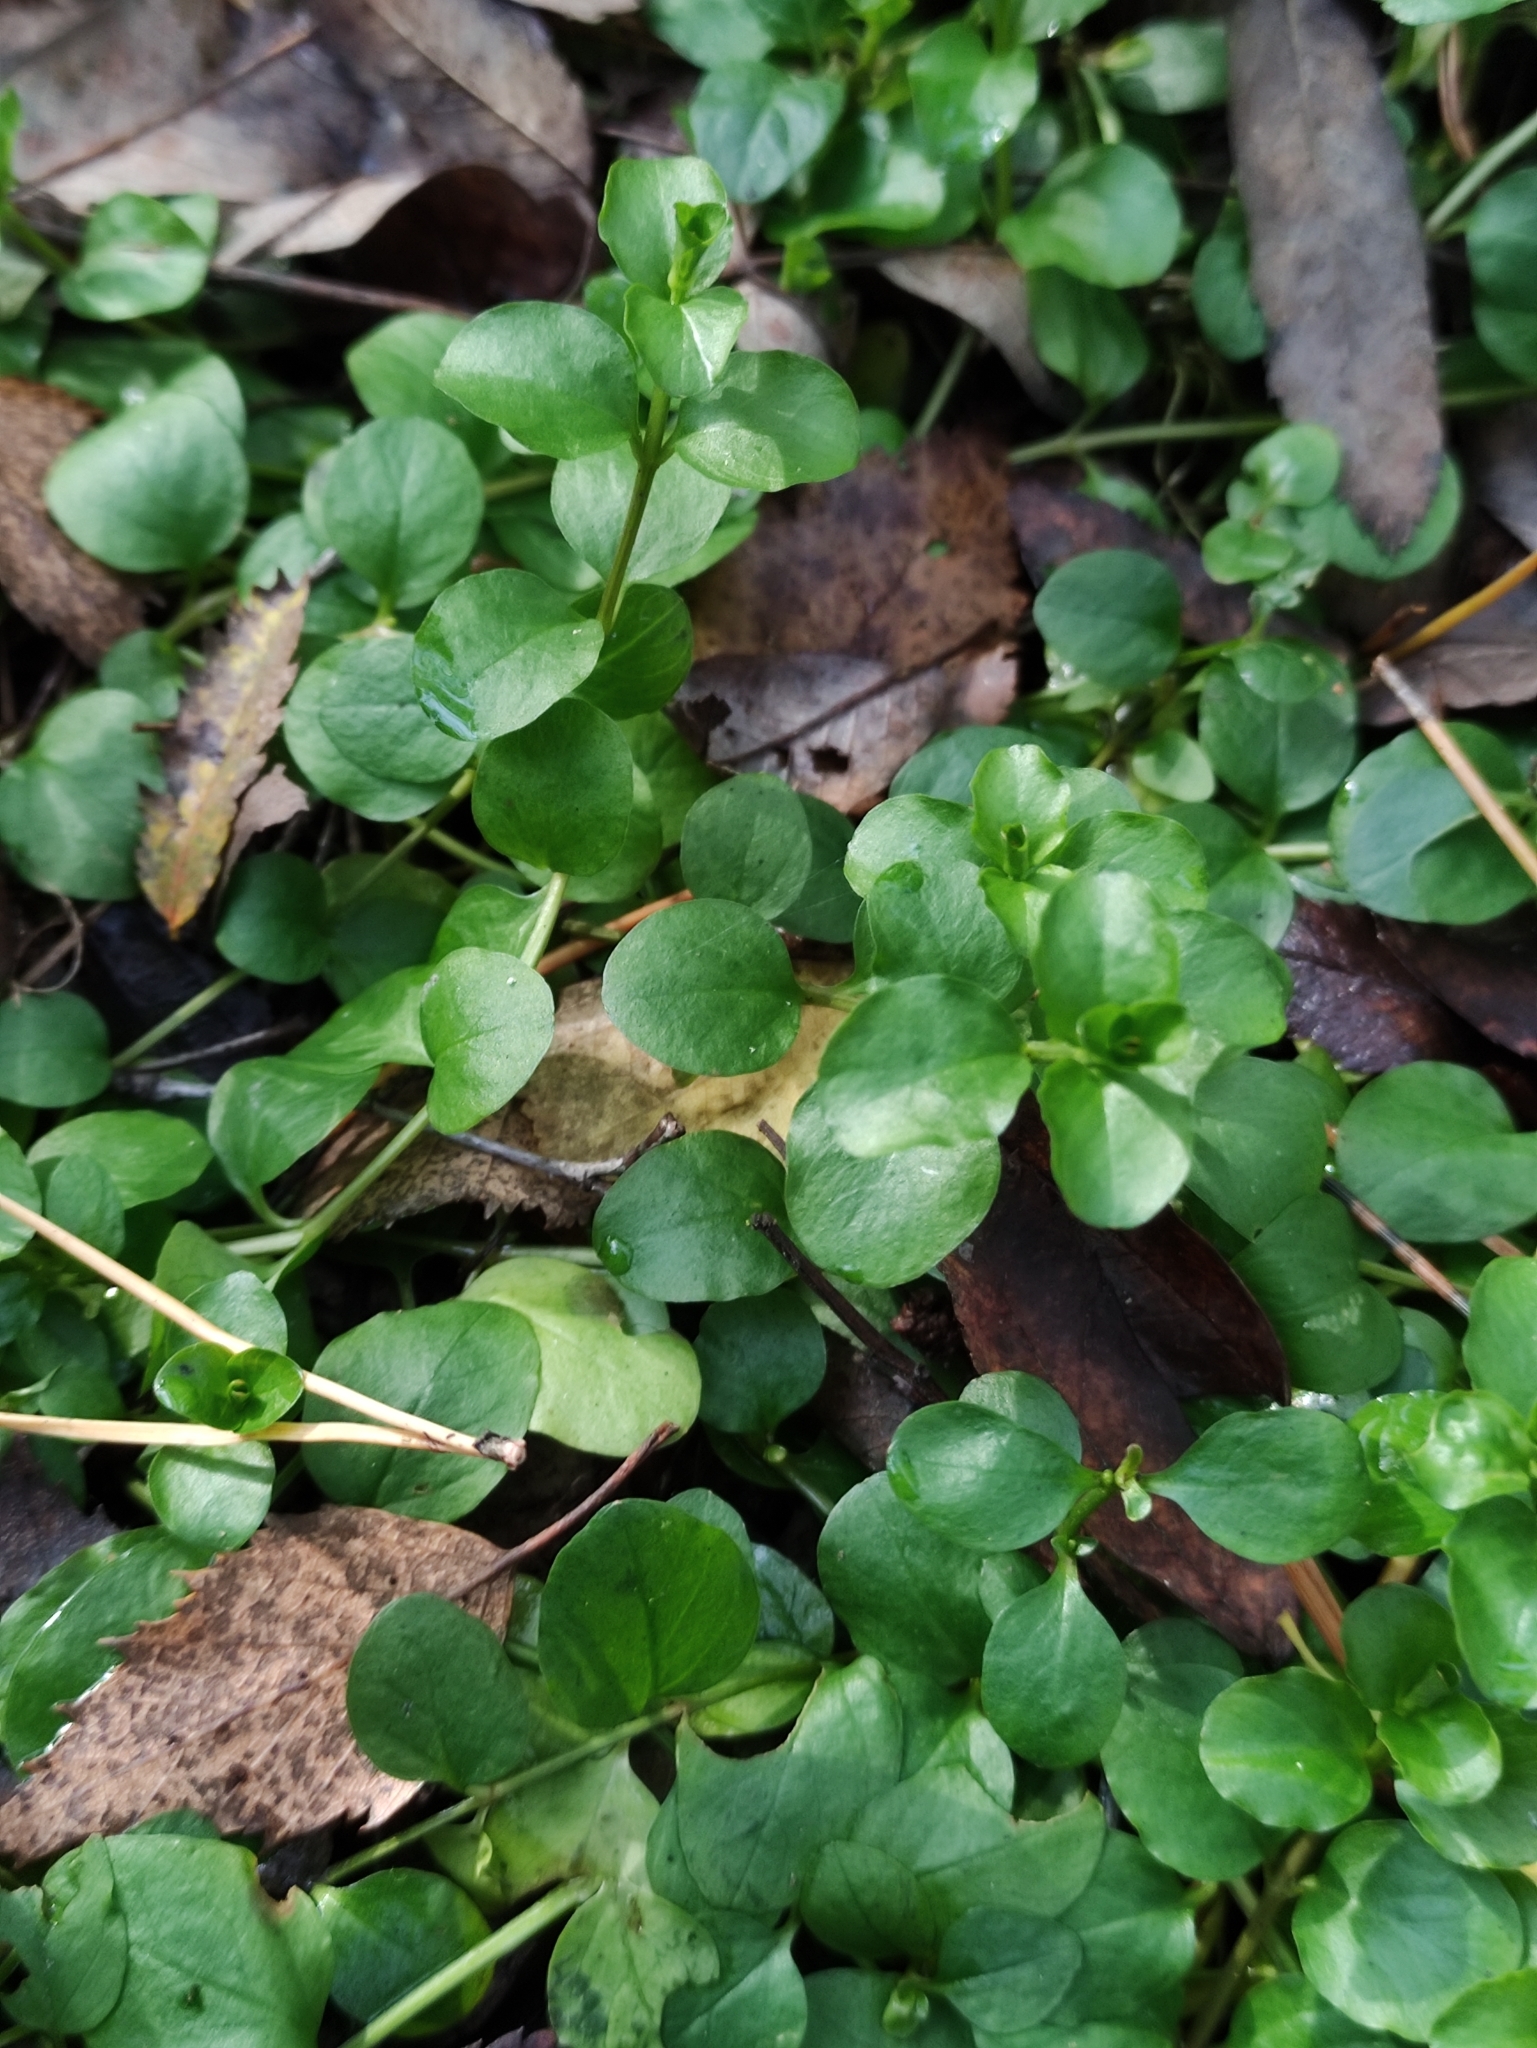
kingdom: Plantae
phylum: Tracheophyta
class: Magnoliopsida
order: Ericales
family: Primulaceae
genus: Lysimachia
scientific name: Lysimachia nummularia
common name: Moneywort
